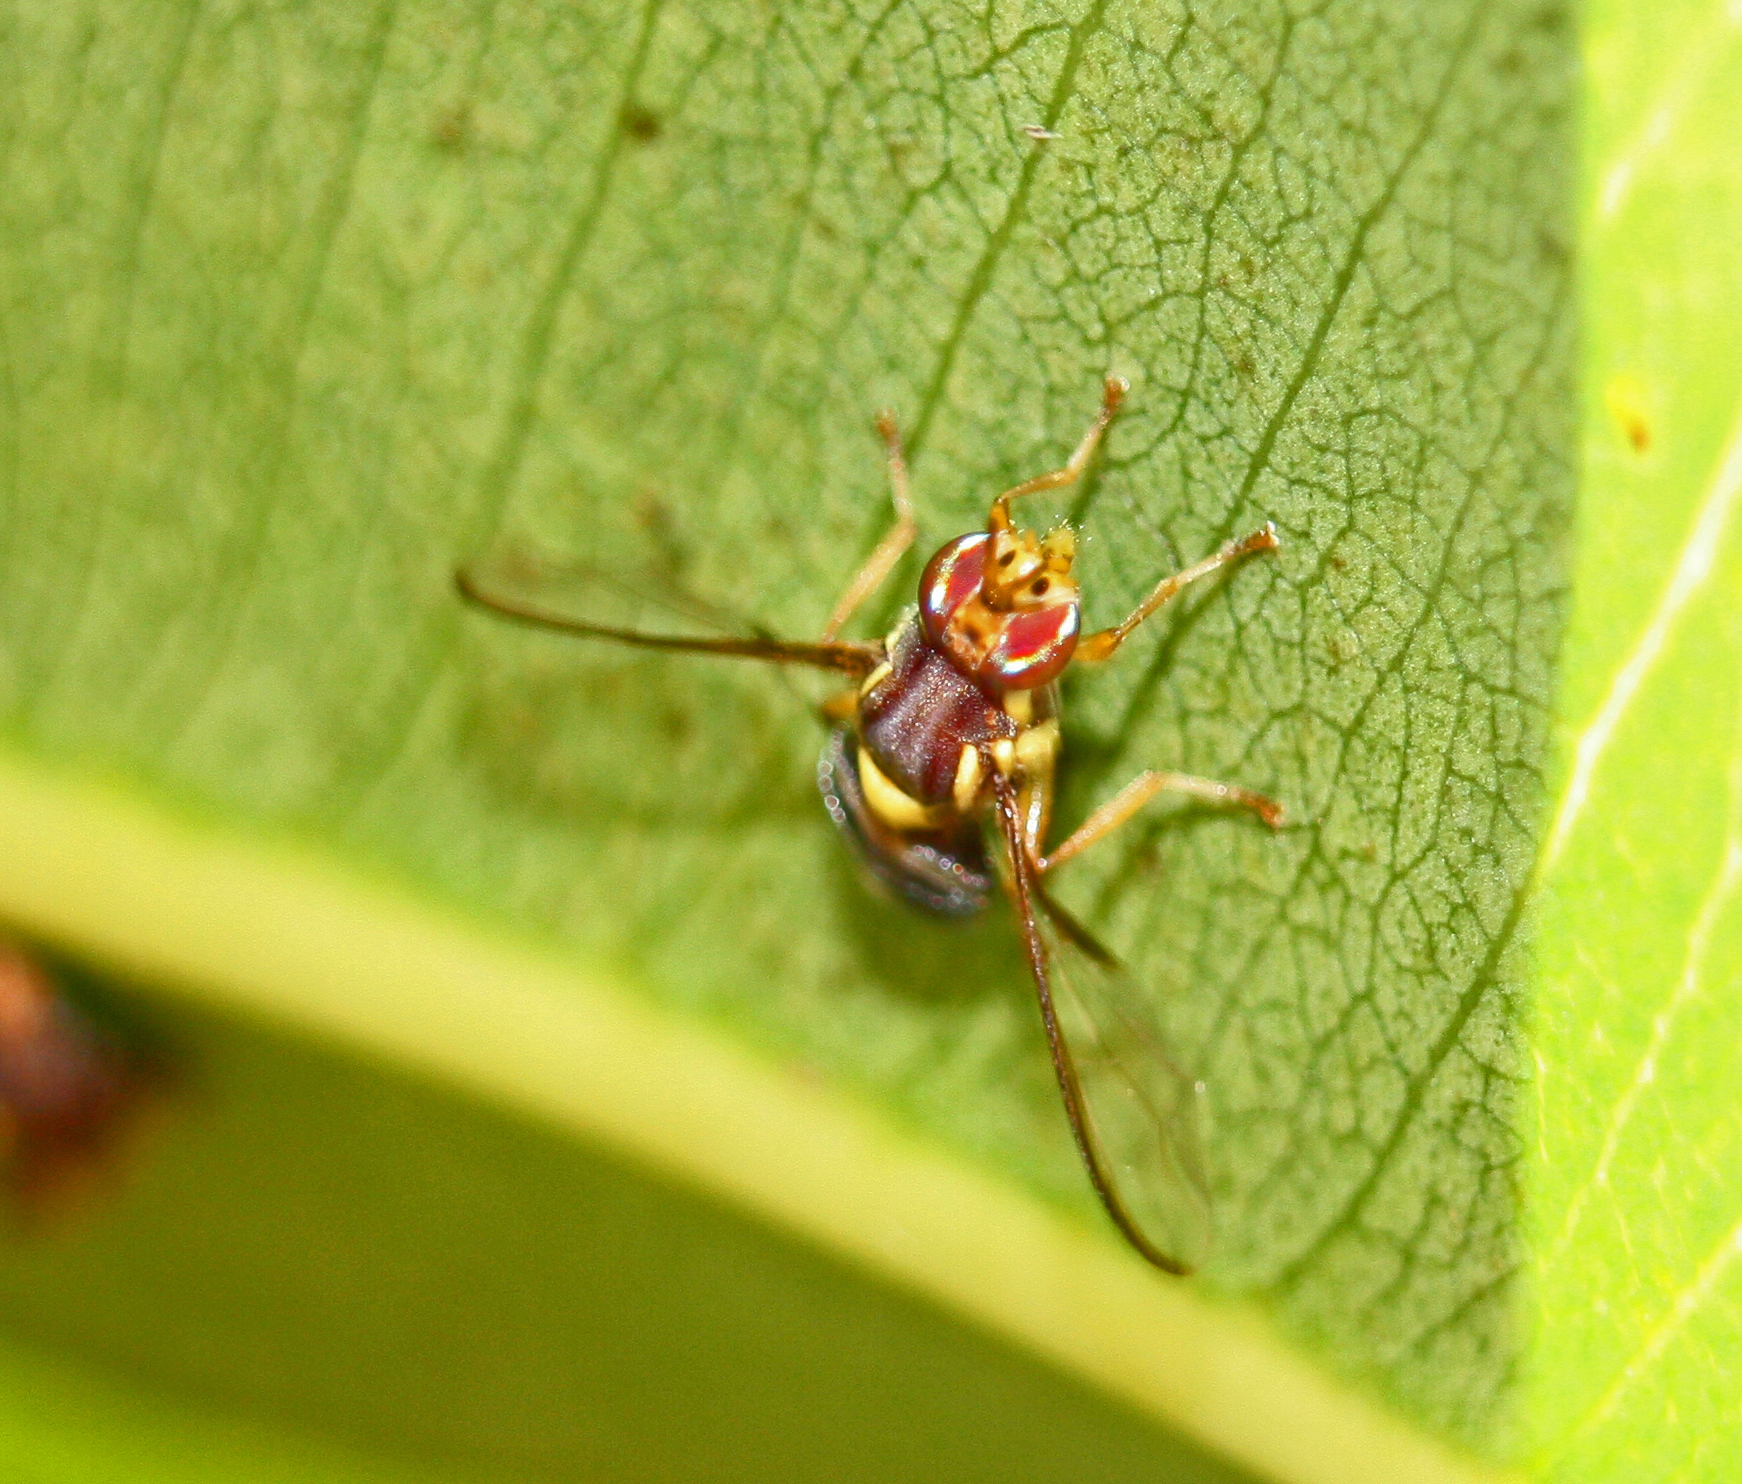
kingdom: Animalia
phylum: Arthropoda
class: Insecta
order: Diptera
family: Tephritidae
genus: Bactrocera
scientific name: Bactrocera tryoni
